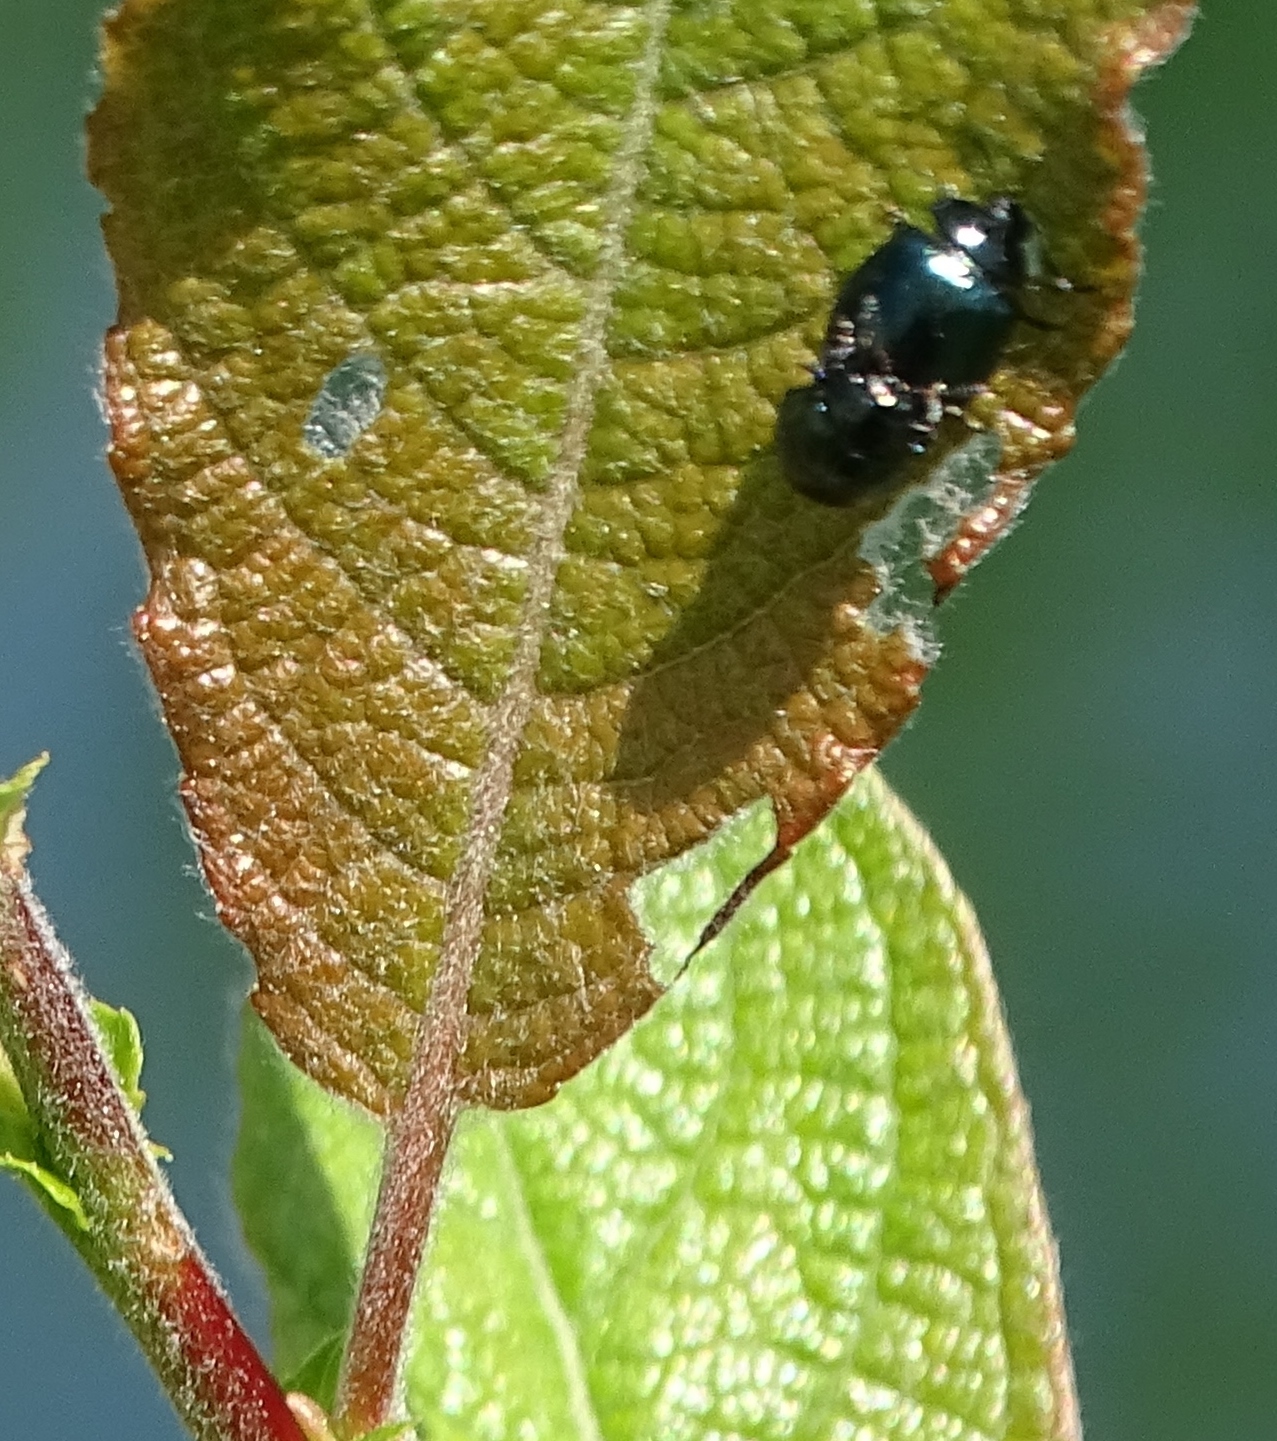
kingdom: Animalia
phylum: Arthropoda
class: Insecta
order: Coleoptera
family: Chrysomelidae
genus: Plagiodera
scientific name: Plagiodera versicolora
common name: Imported willow leaf beetle
